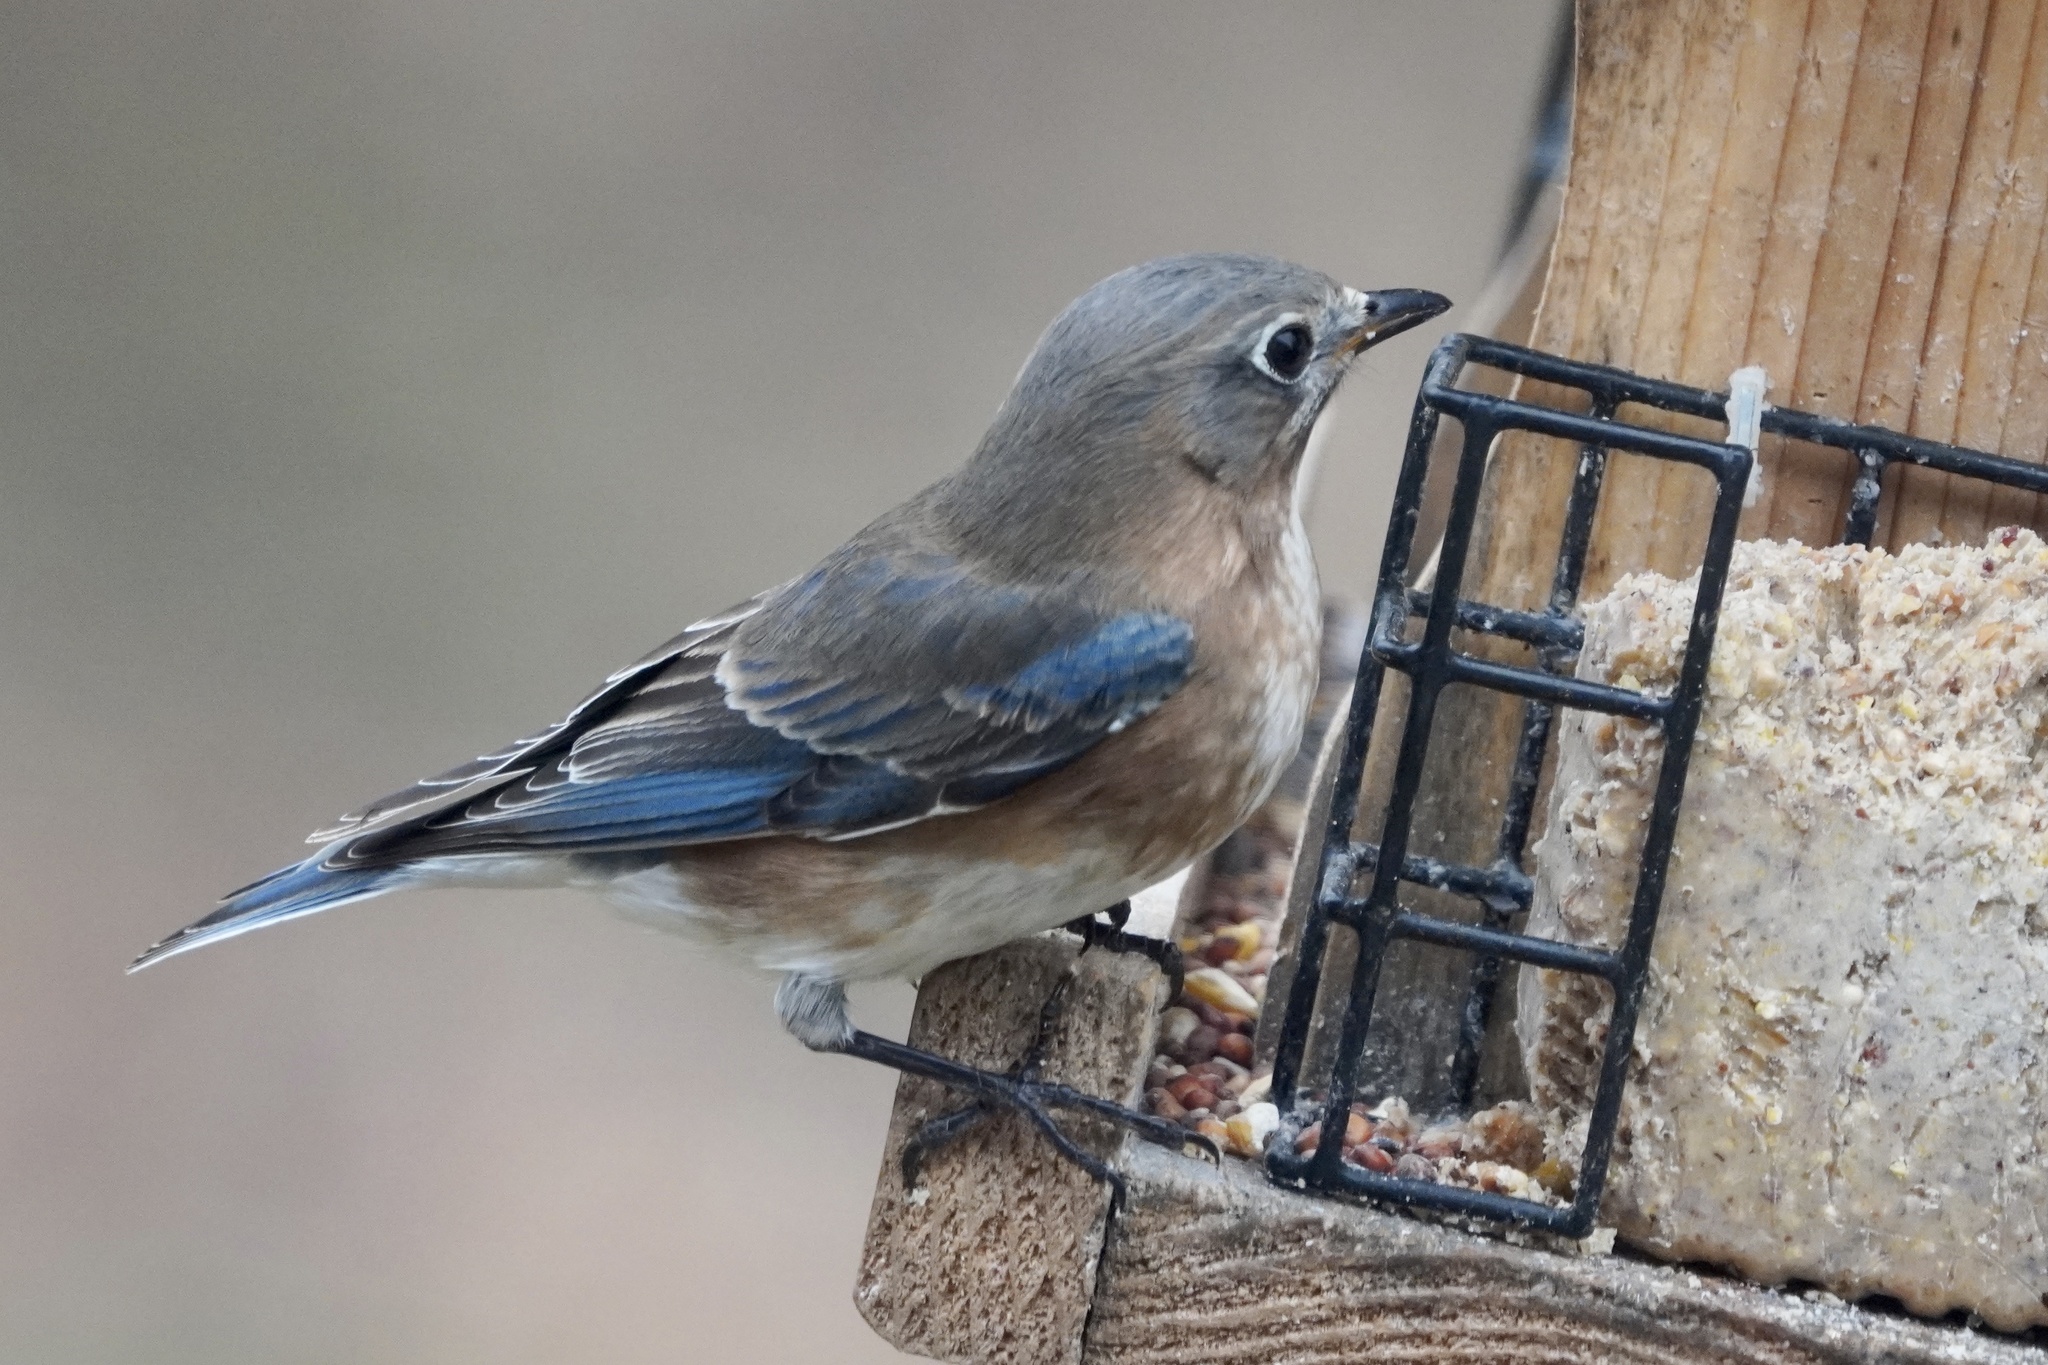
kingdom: Animalia
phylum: Chordata
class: Aves
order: Passeriformes
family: Turdidae
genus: Sialia
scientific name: Sialia sialis
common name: Eastern bluebird
